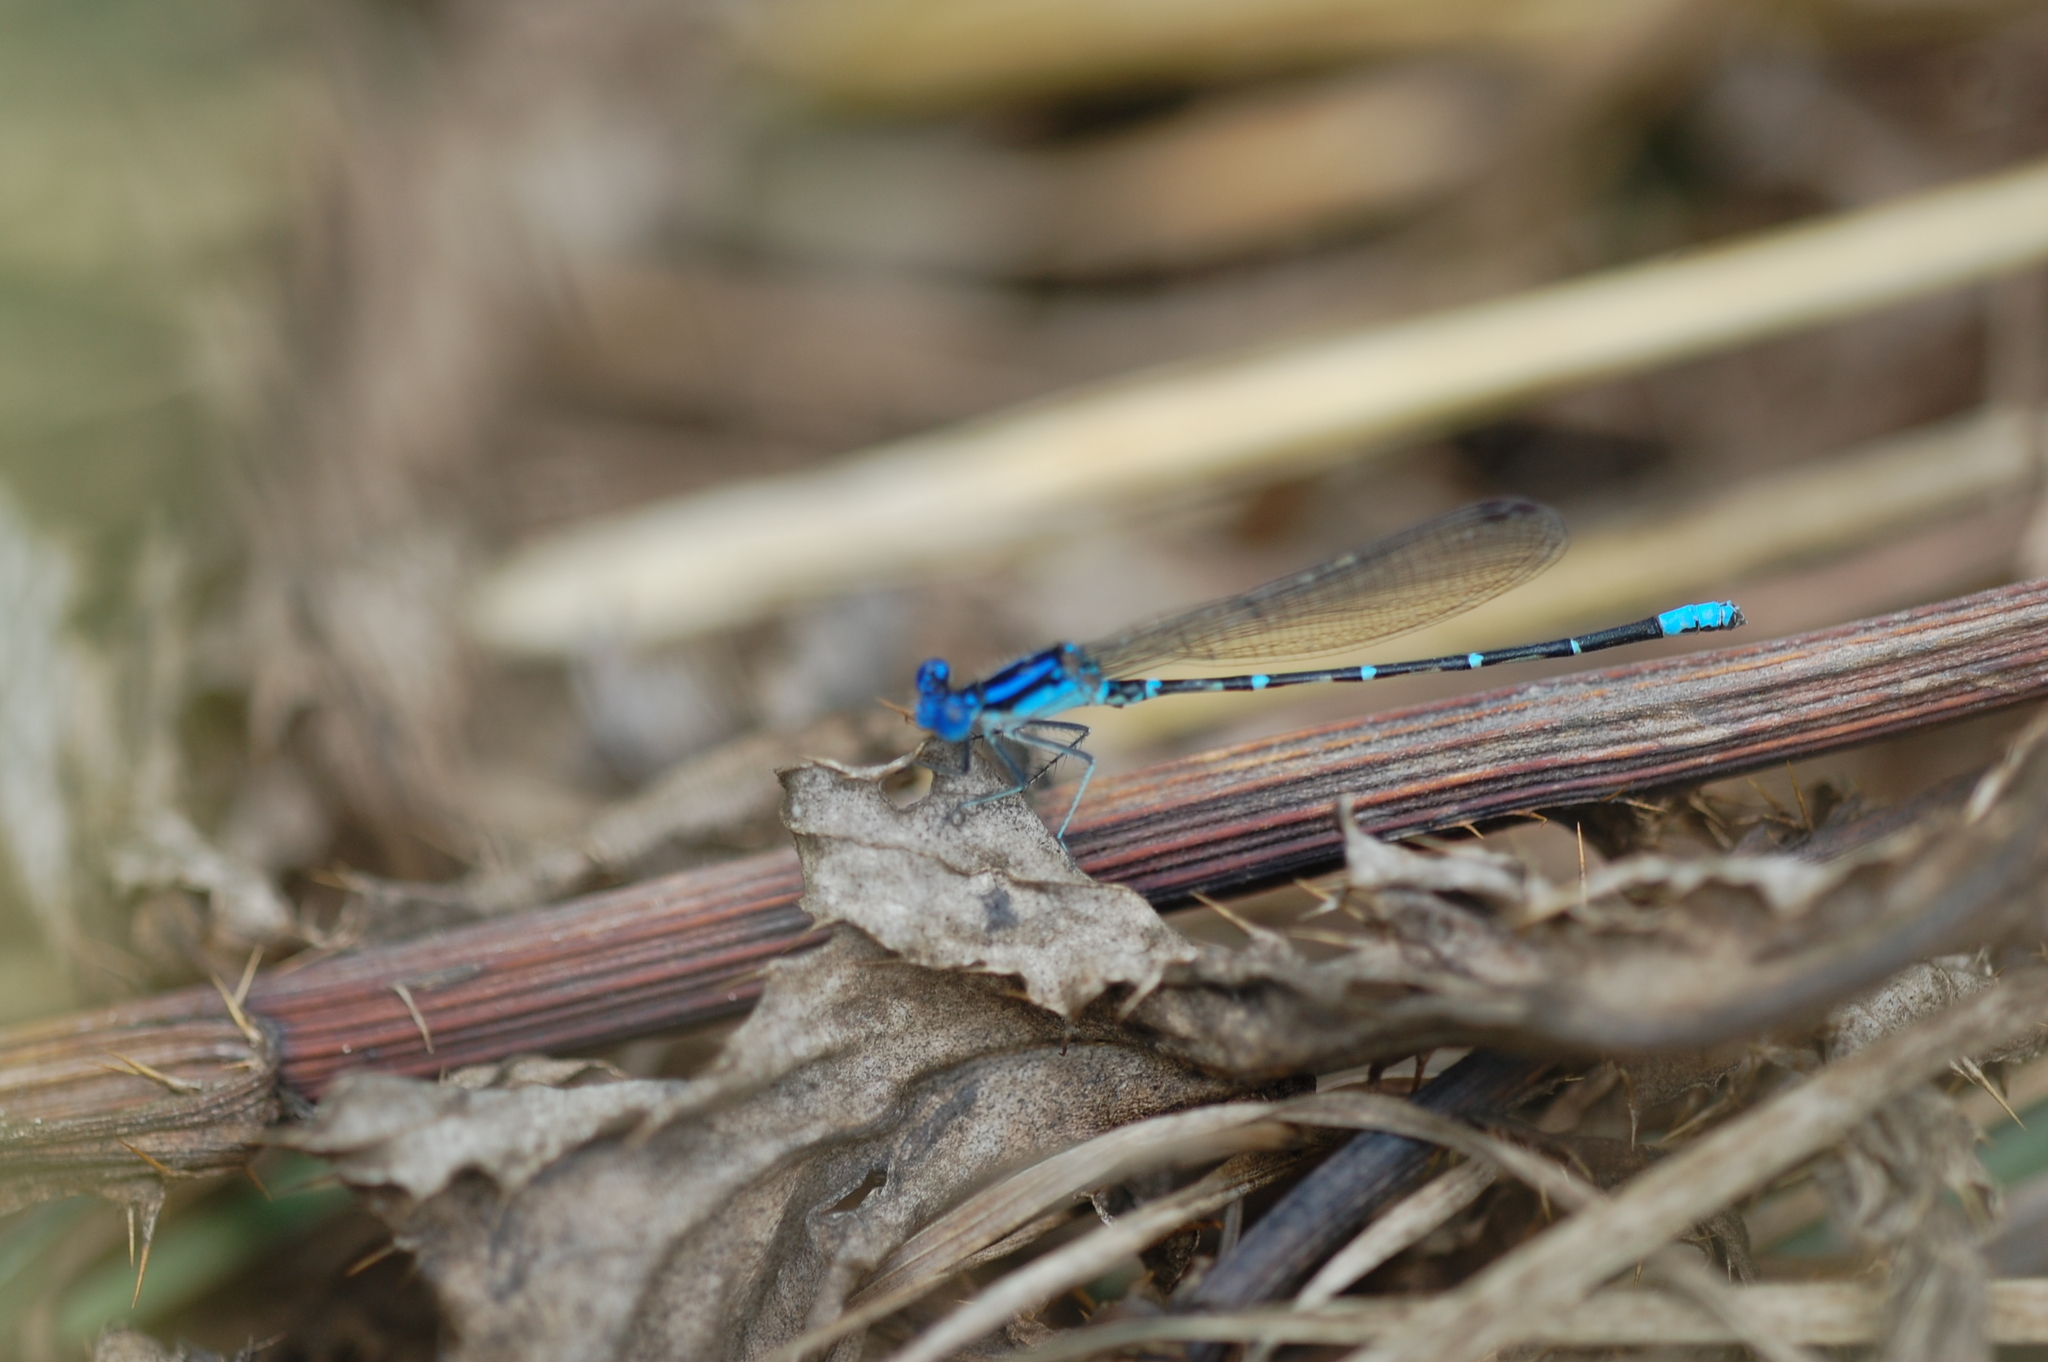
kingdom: Animalia
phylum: Arthropoda
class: Insecta
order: Odonata
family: Coenagrionidae
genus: Argia
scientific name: Argia sedula
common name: Blue-ringed dancer
